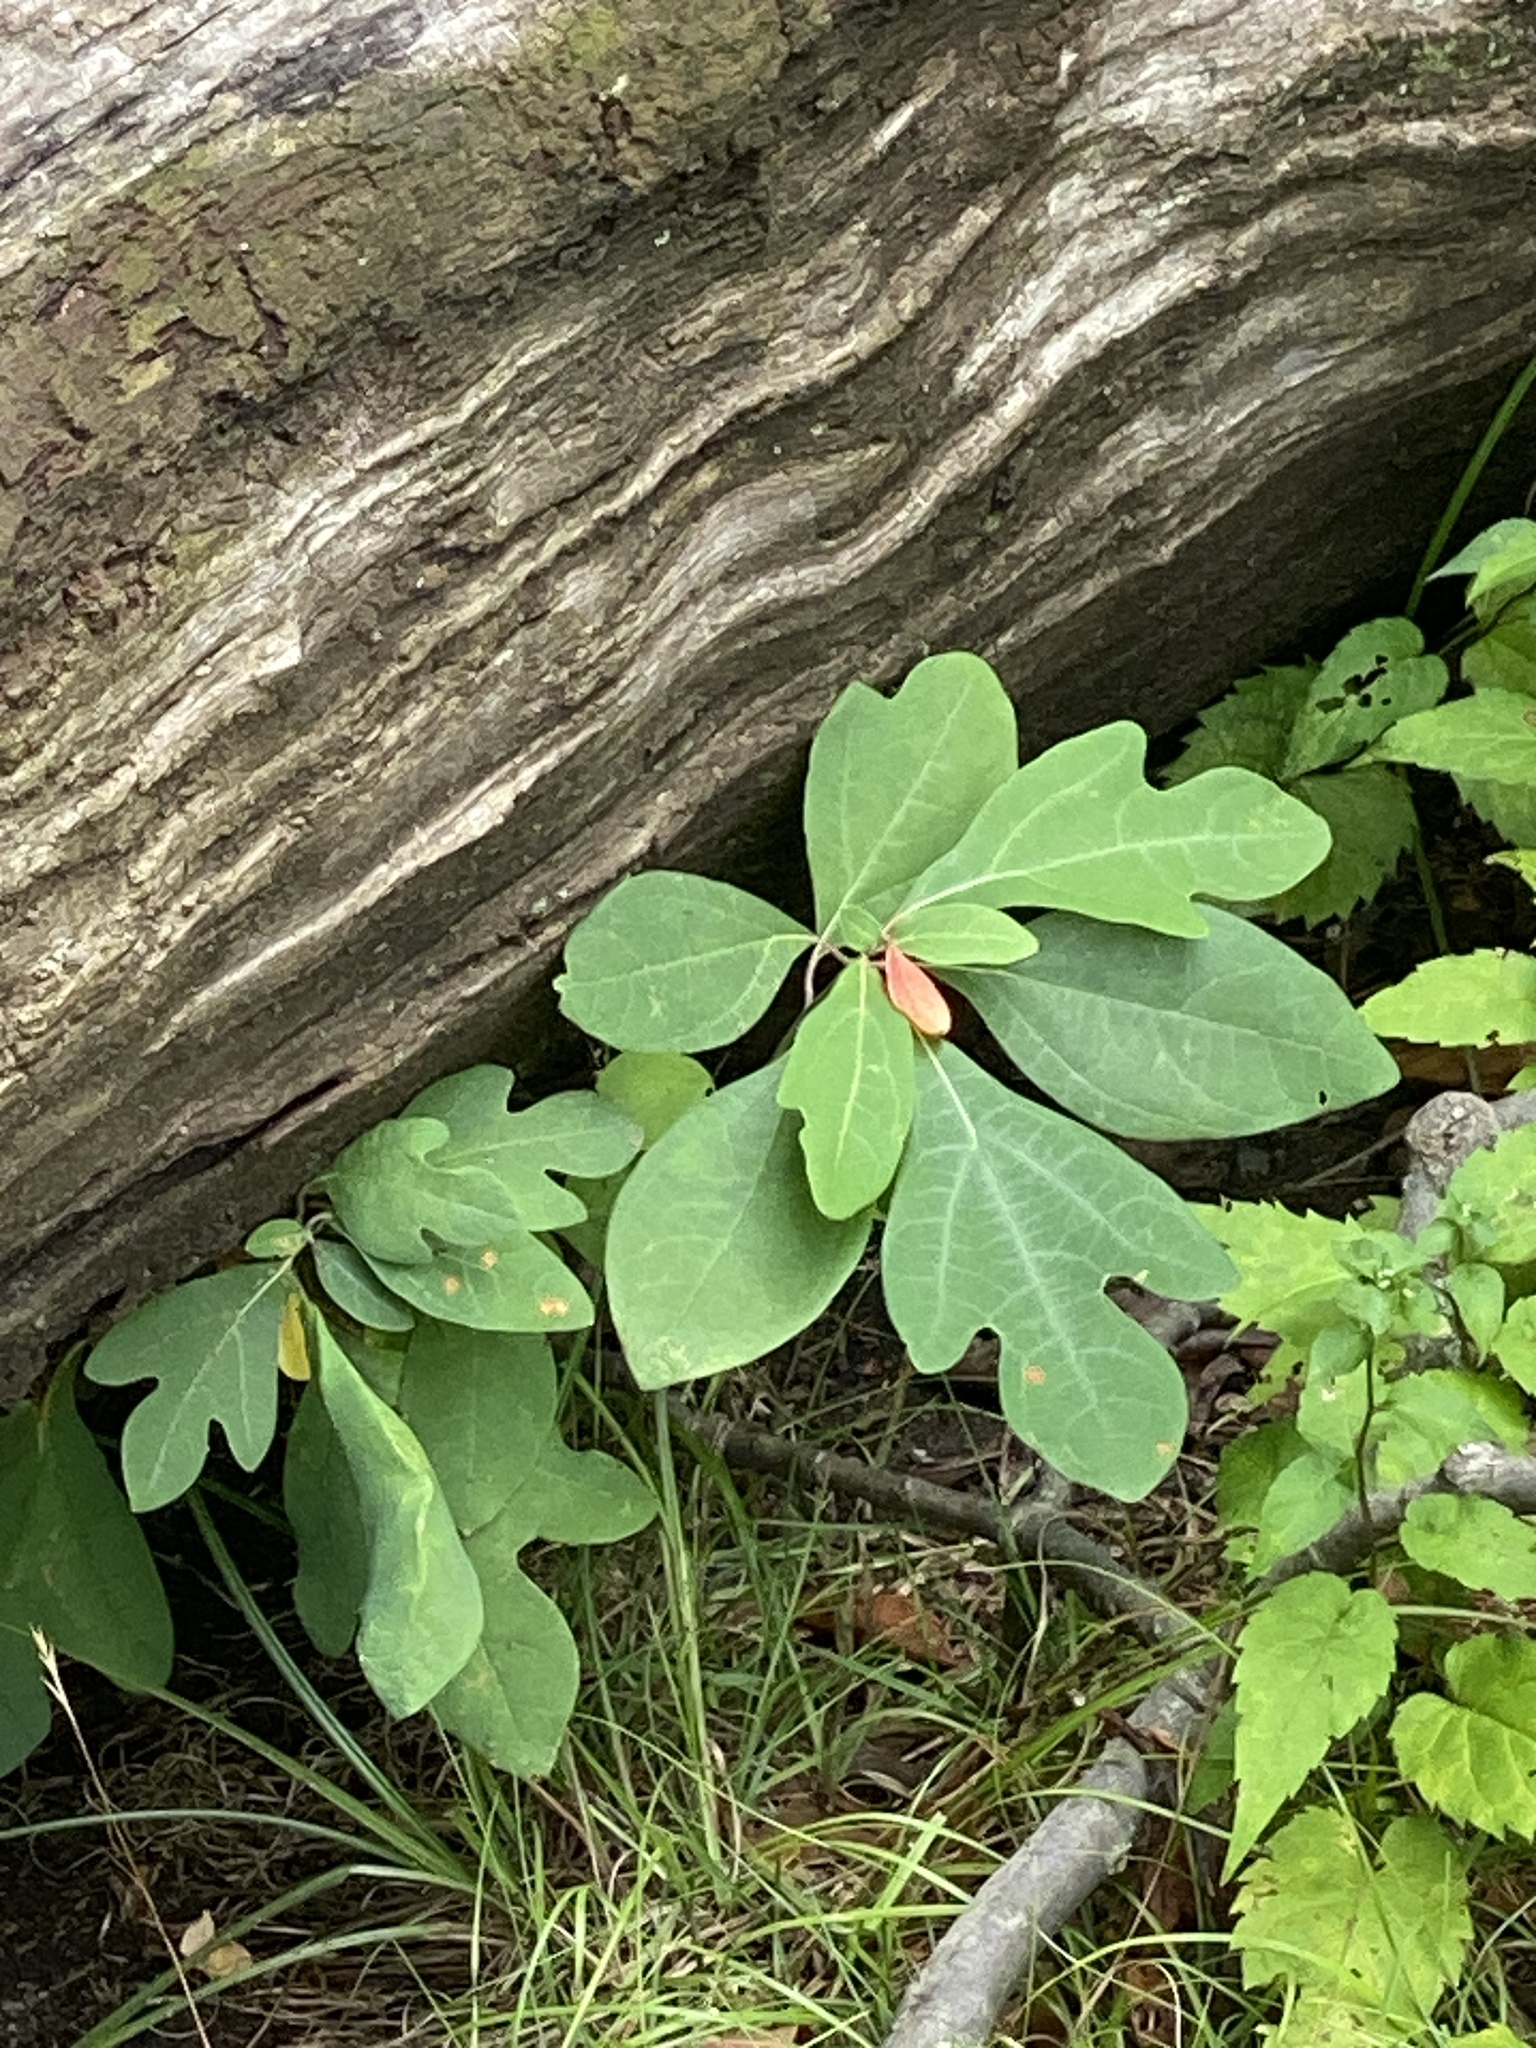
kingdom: Plantae
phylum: Tracheophyta
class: Magnoliopsida
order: Laurales
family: Lauraceae
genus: Sassafras
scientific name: Sassafras albidum
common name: Sassafras
